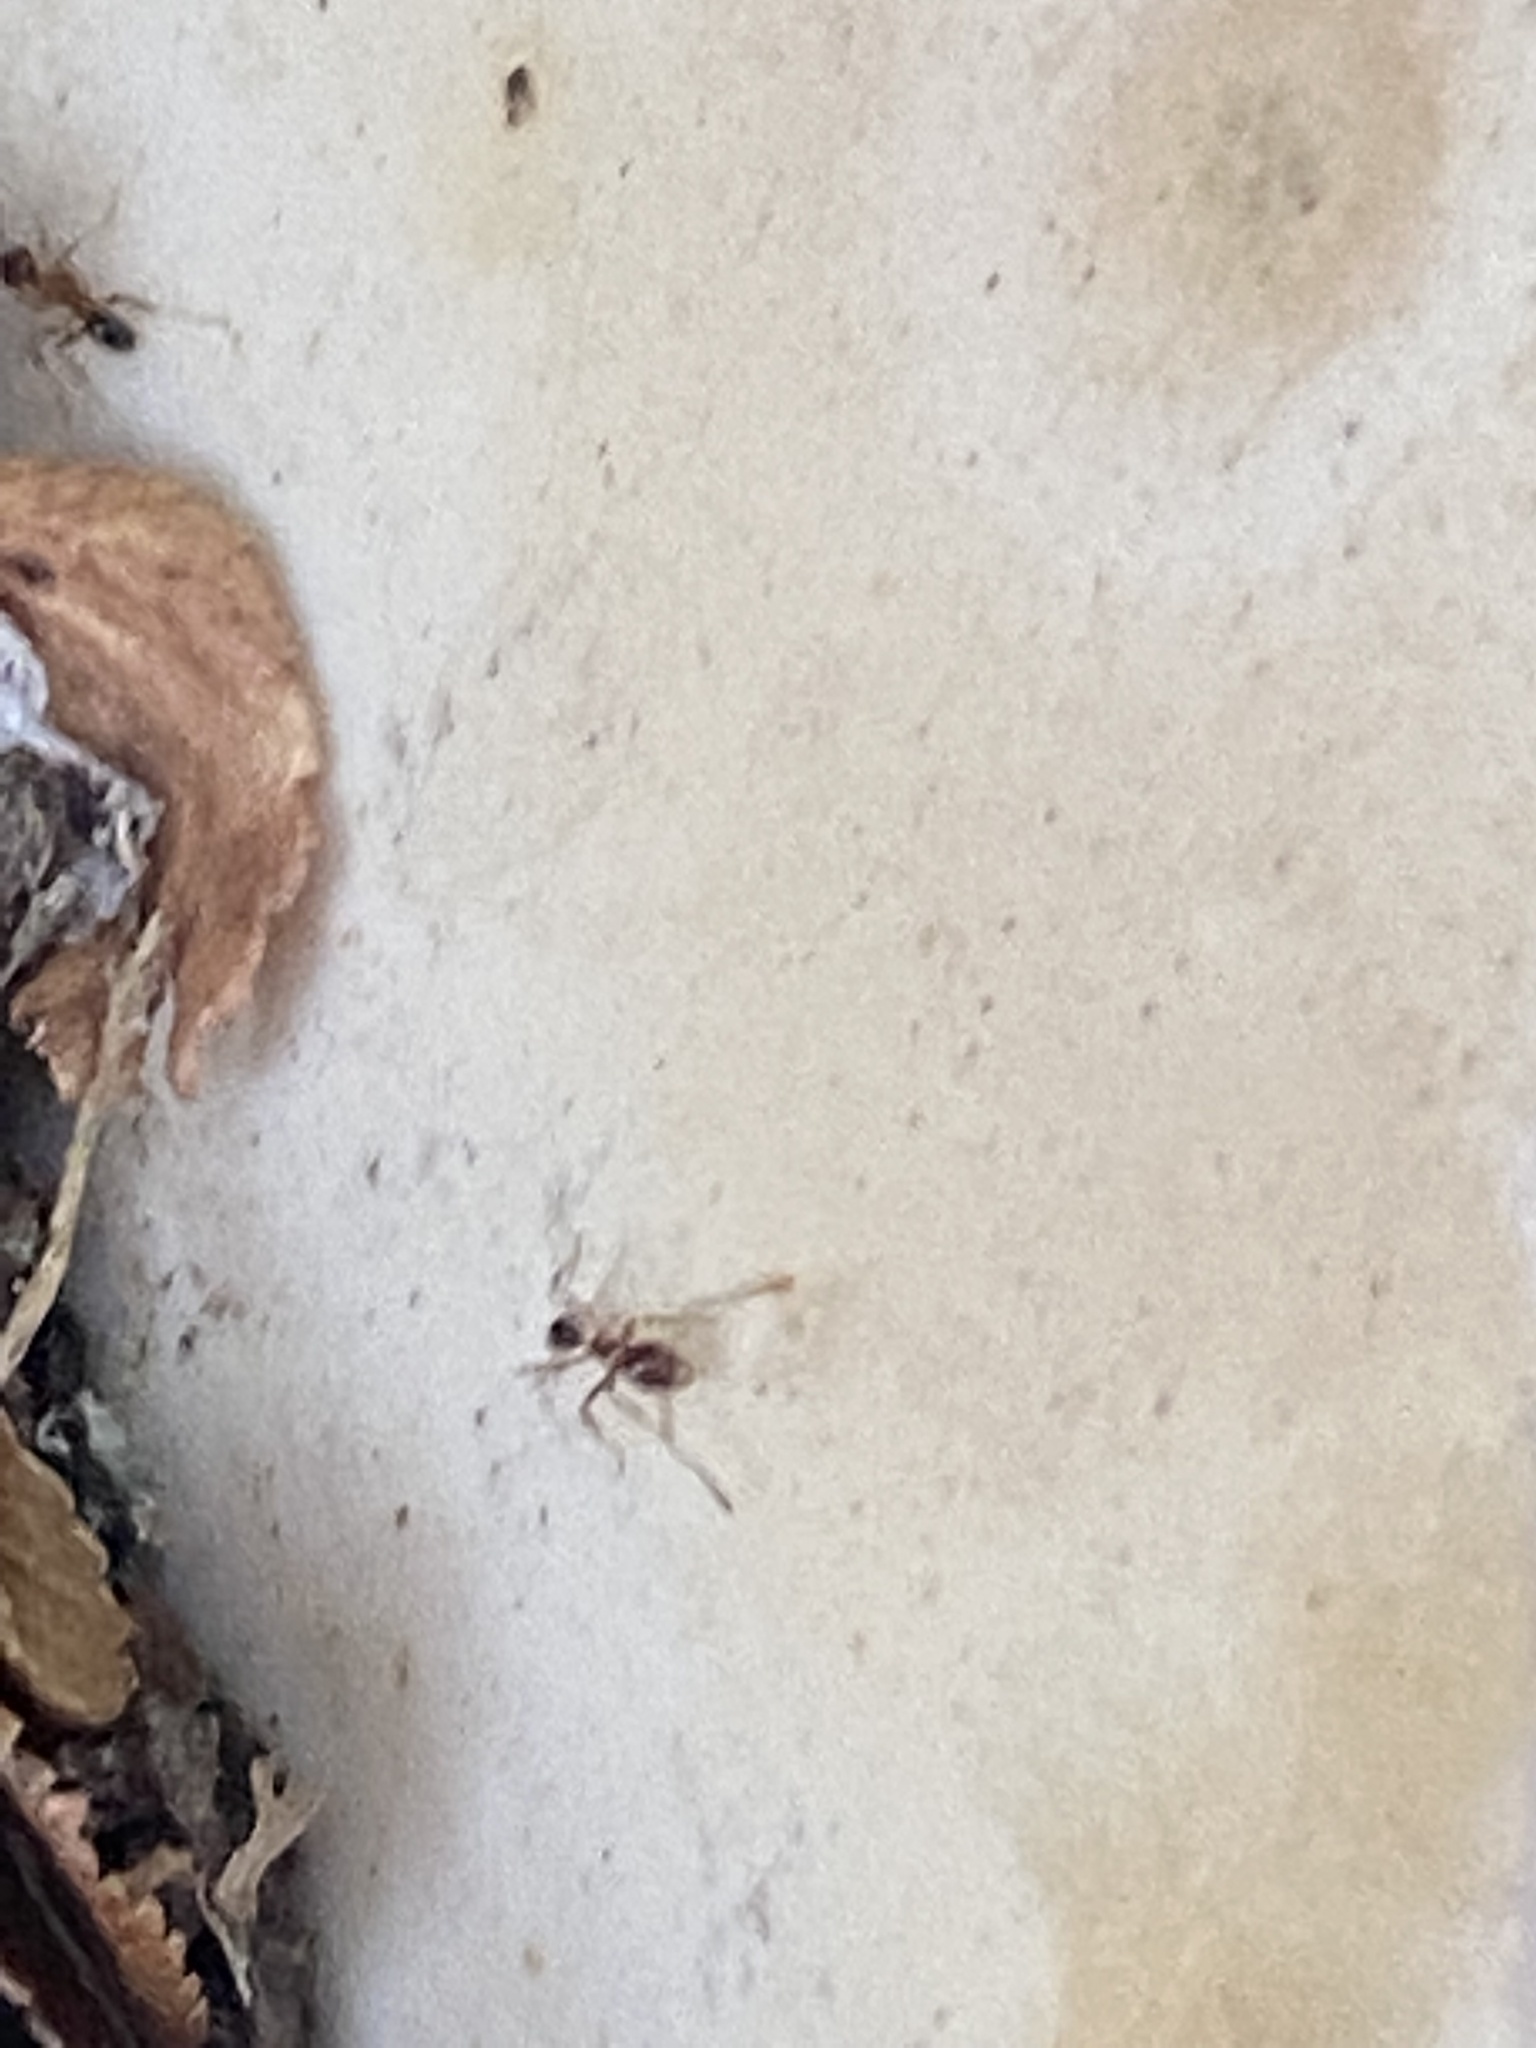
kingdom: Animalia
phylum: Arthropoda
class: Insecta
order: Hymenoptera
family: Formicidae
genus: Pheidole
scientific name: Pheidole dentata
